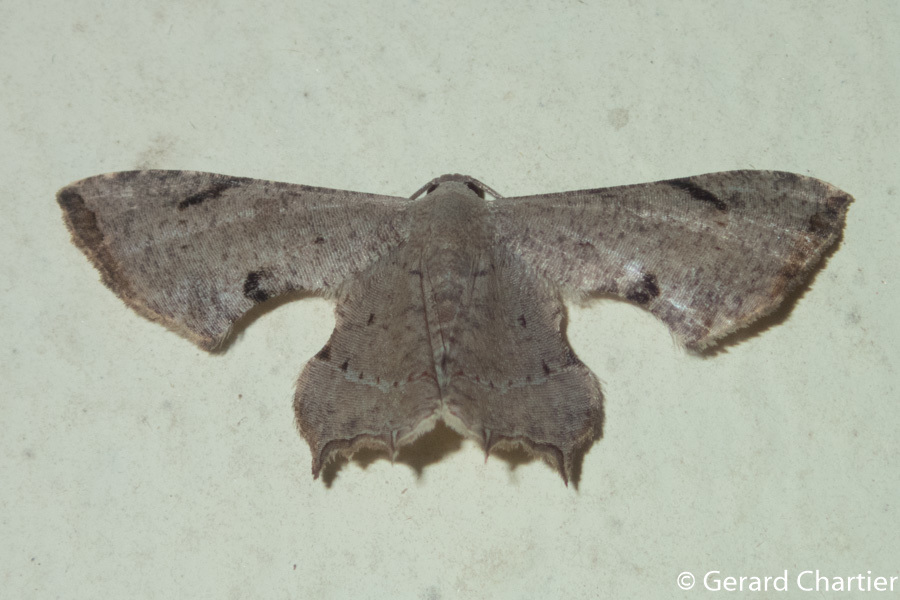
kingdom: Animalia
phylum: Arthropoda
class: Insecta
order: Lepidoptera
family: Uraniidae
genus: Dysaethria
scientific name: Dysaethria quadricaudata
